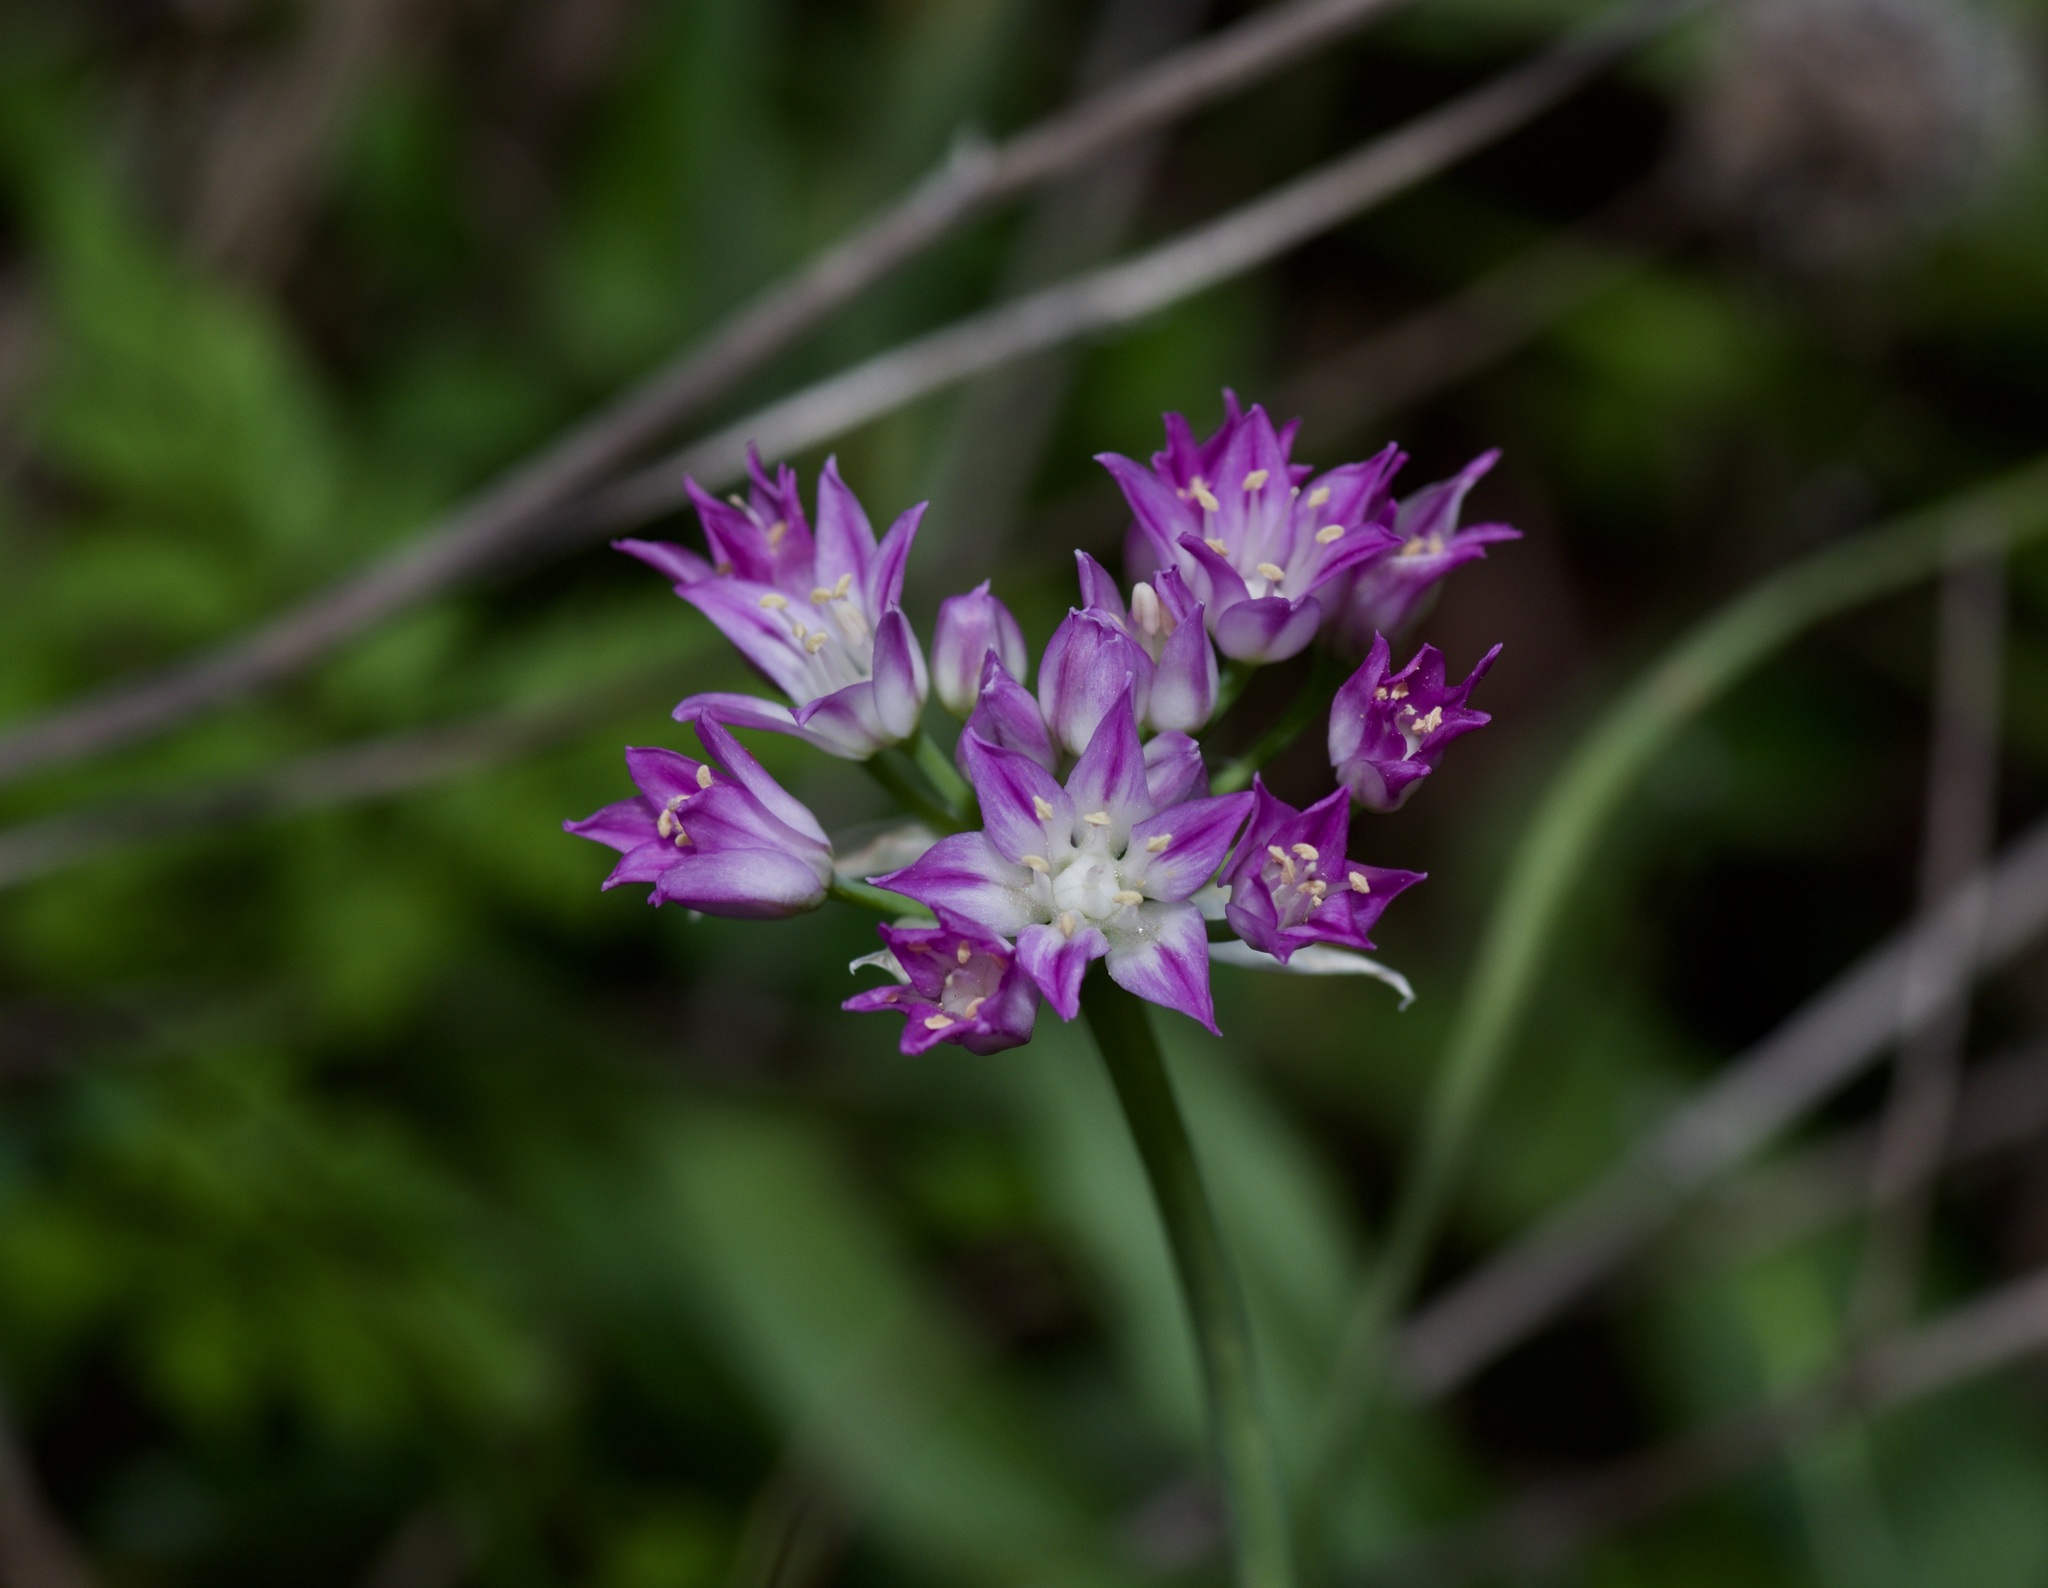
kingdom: Plantae
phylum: Tracheophyta
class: Liliopsida
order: Asparagales
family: Amaryllidaceae
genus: Allium
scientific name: Allium drummondii
